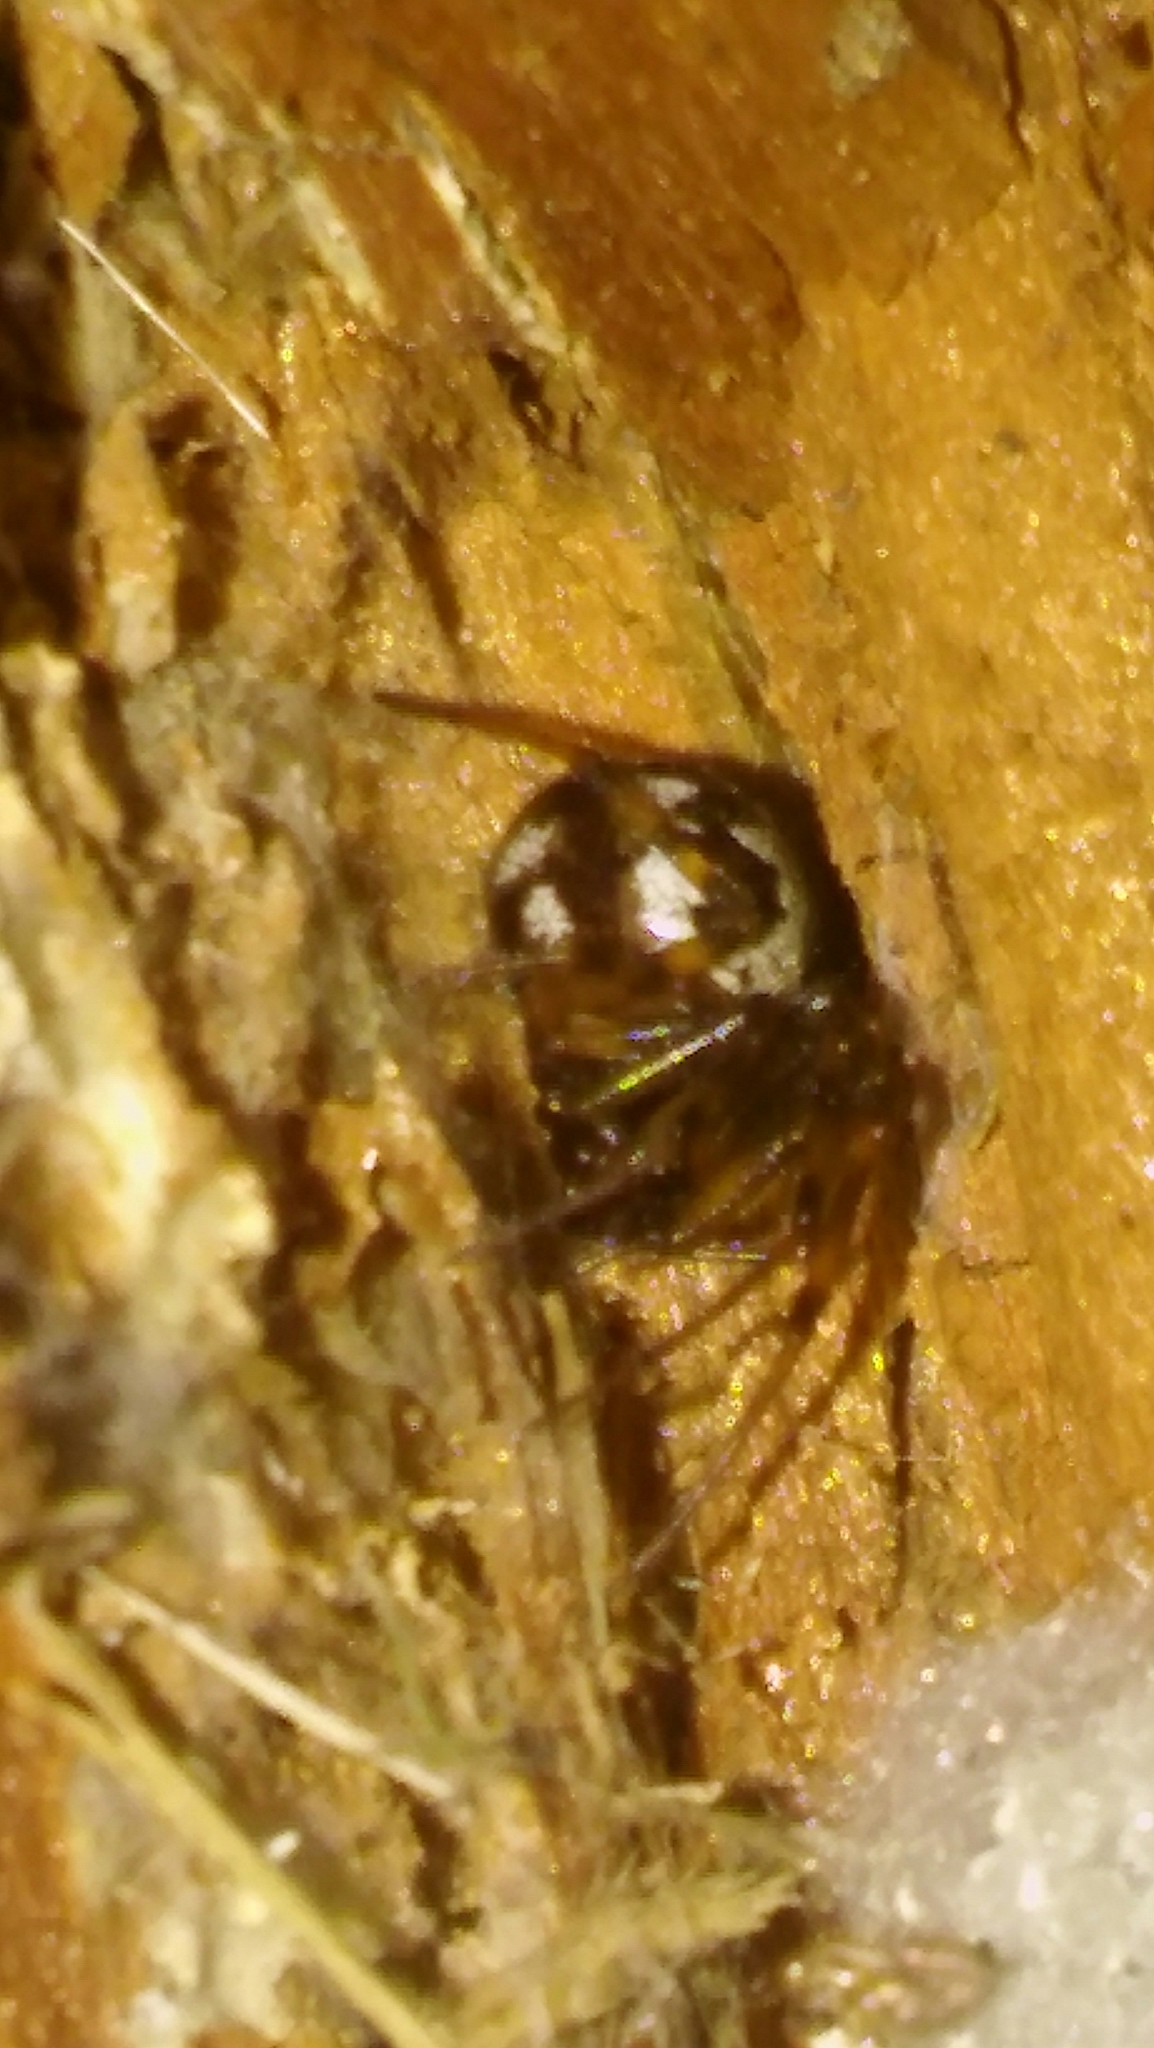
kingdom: Animalia
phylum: Arthropoda
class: Arachnida
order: Araneae
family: Theridiidae
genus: Steatoda
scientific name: Steatoda triangulosa
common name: Triangulate bud spider
